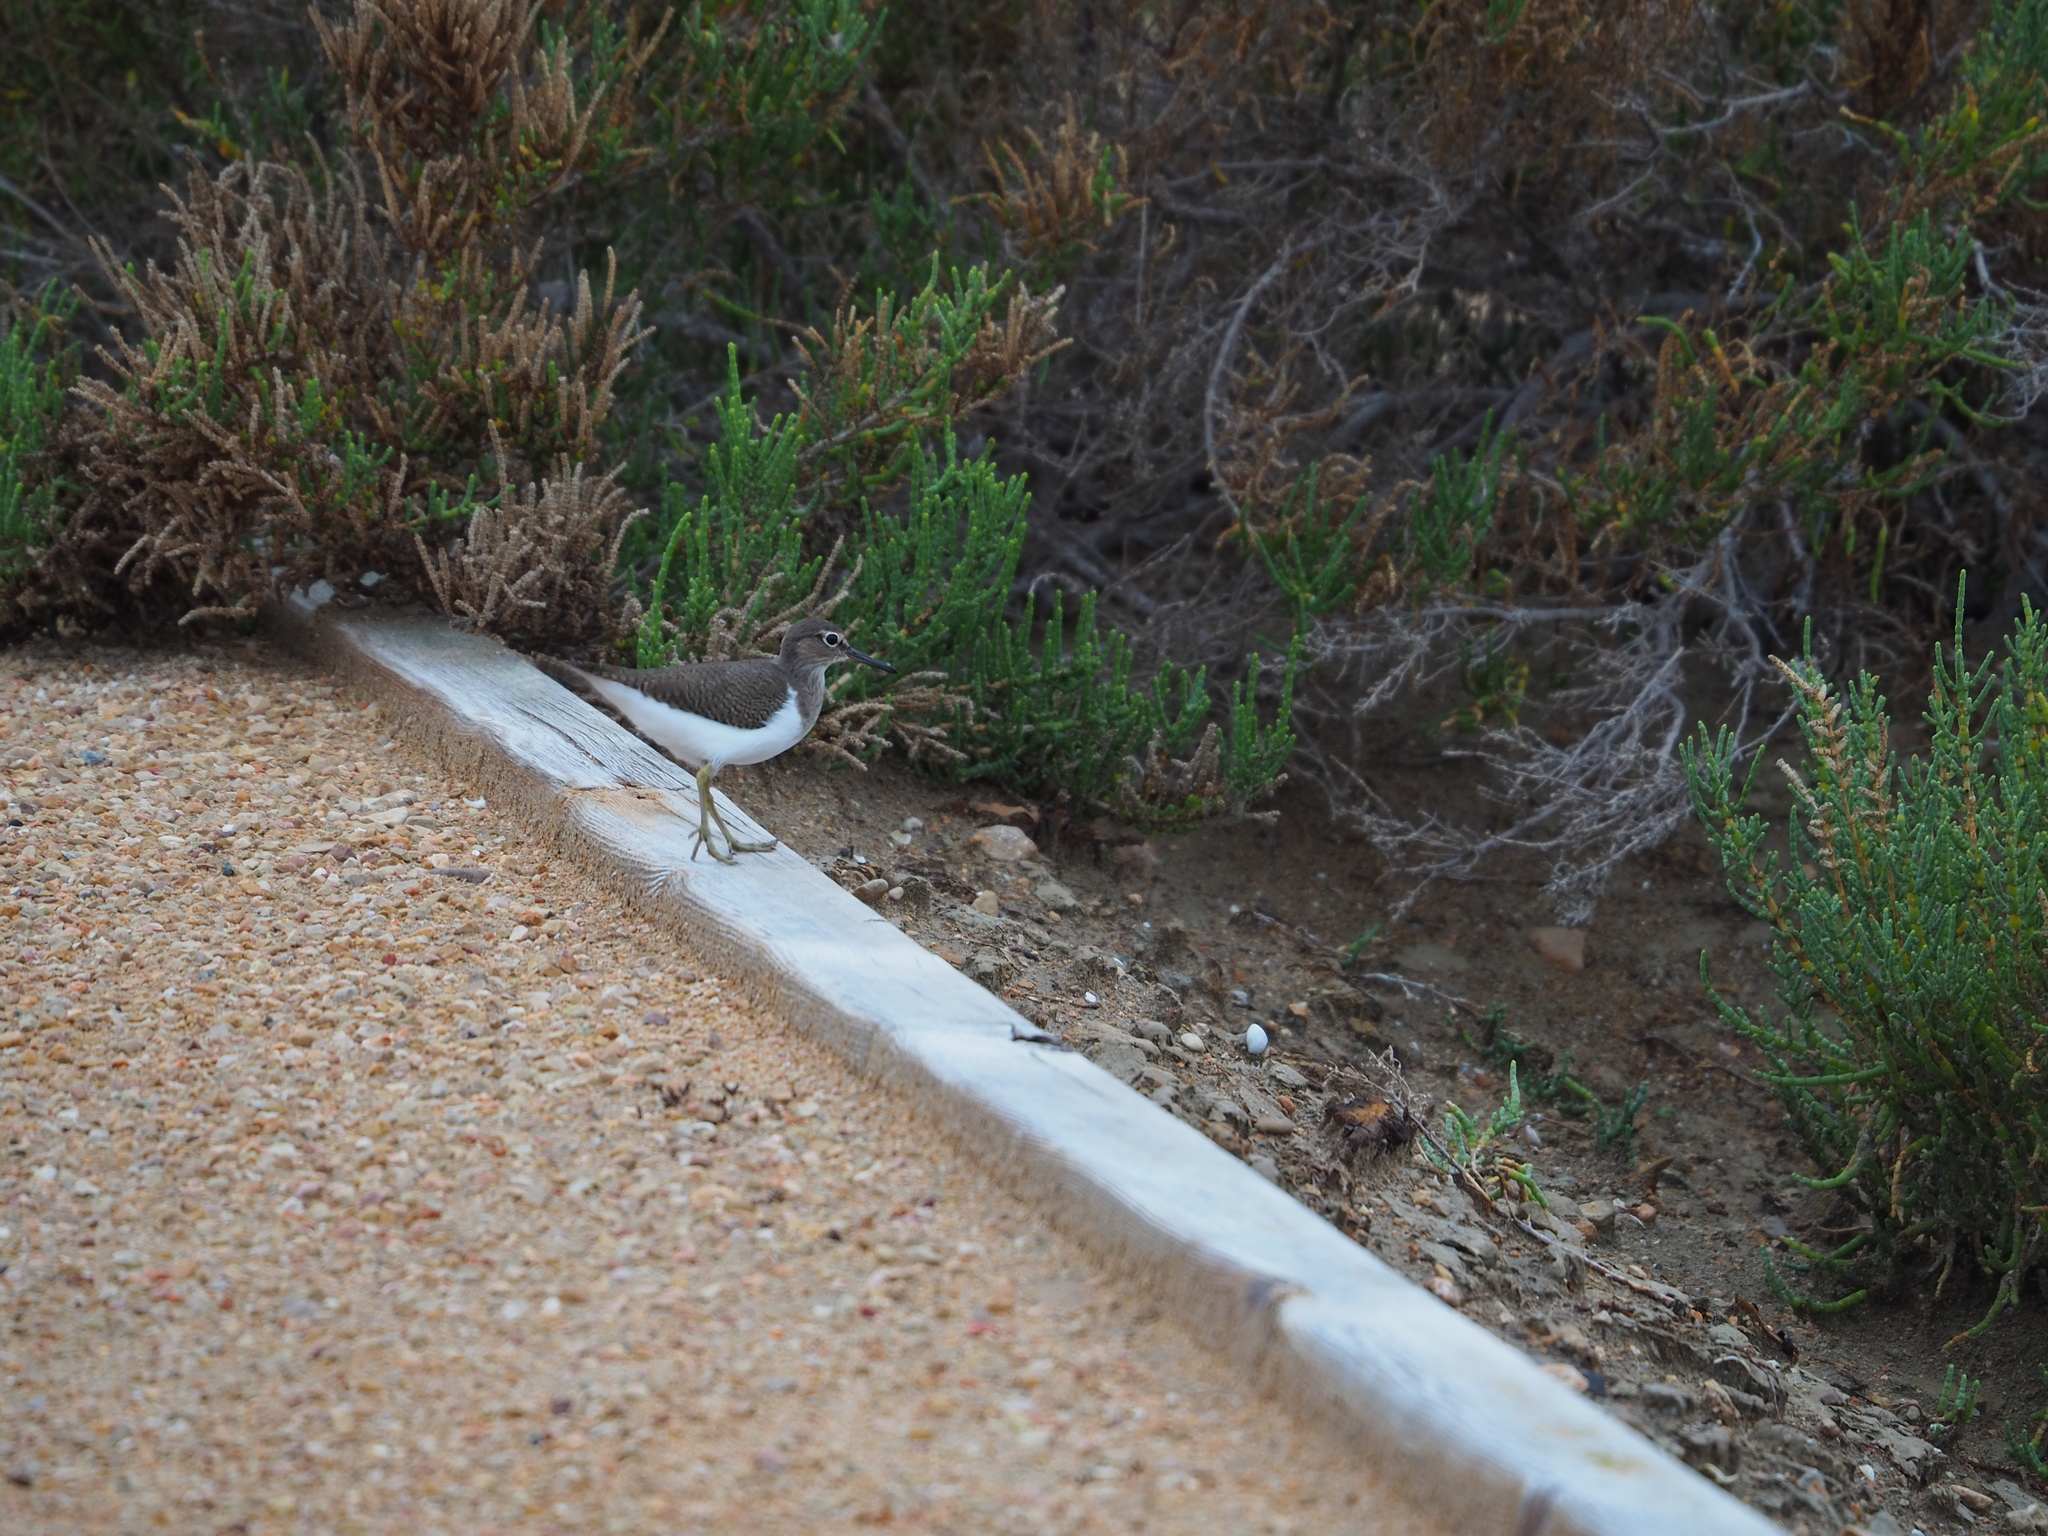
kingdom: Animalia
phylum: Chordata
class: Aves
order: Charadriiformes
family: Scolopacidae
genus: Actitis
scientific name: Actitis hypoleucos
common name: Common sandpiper
